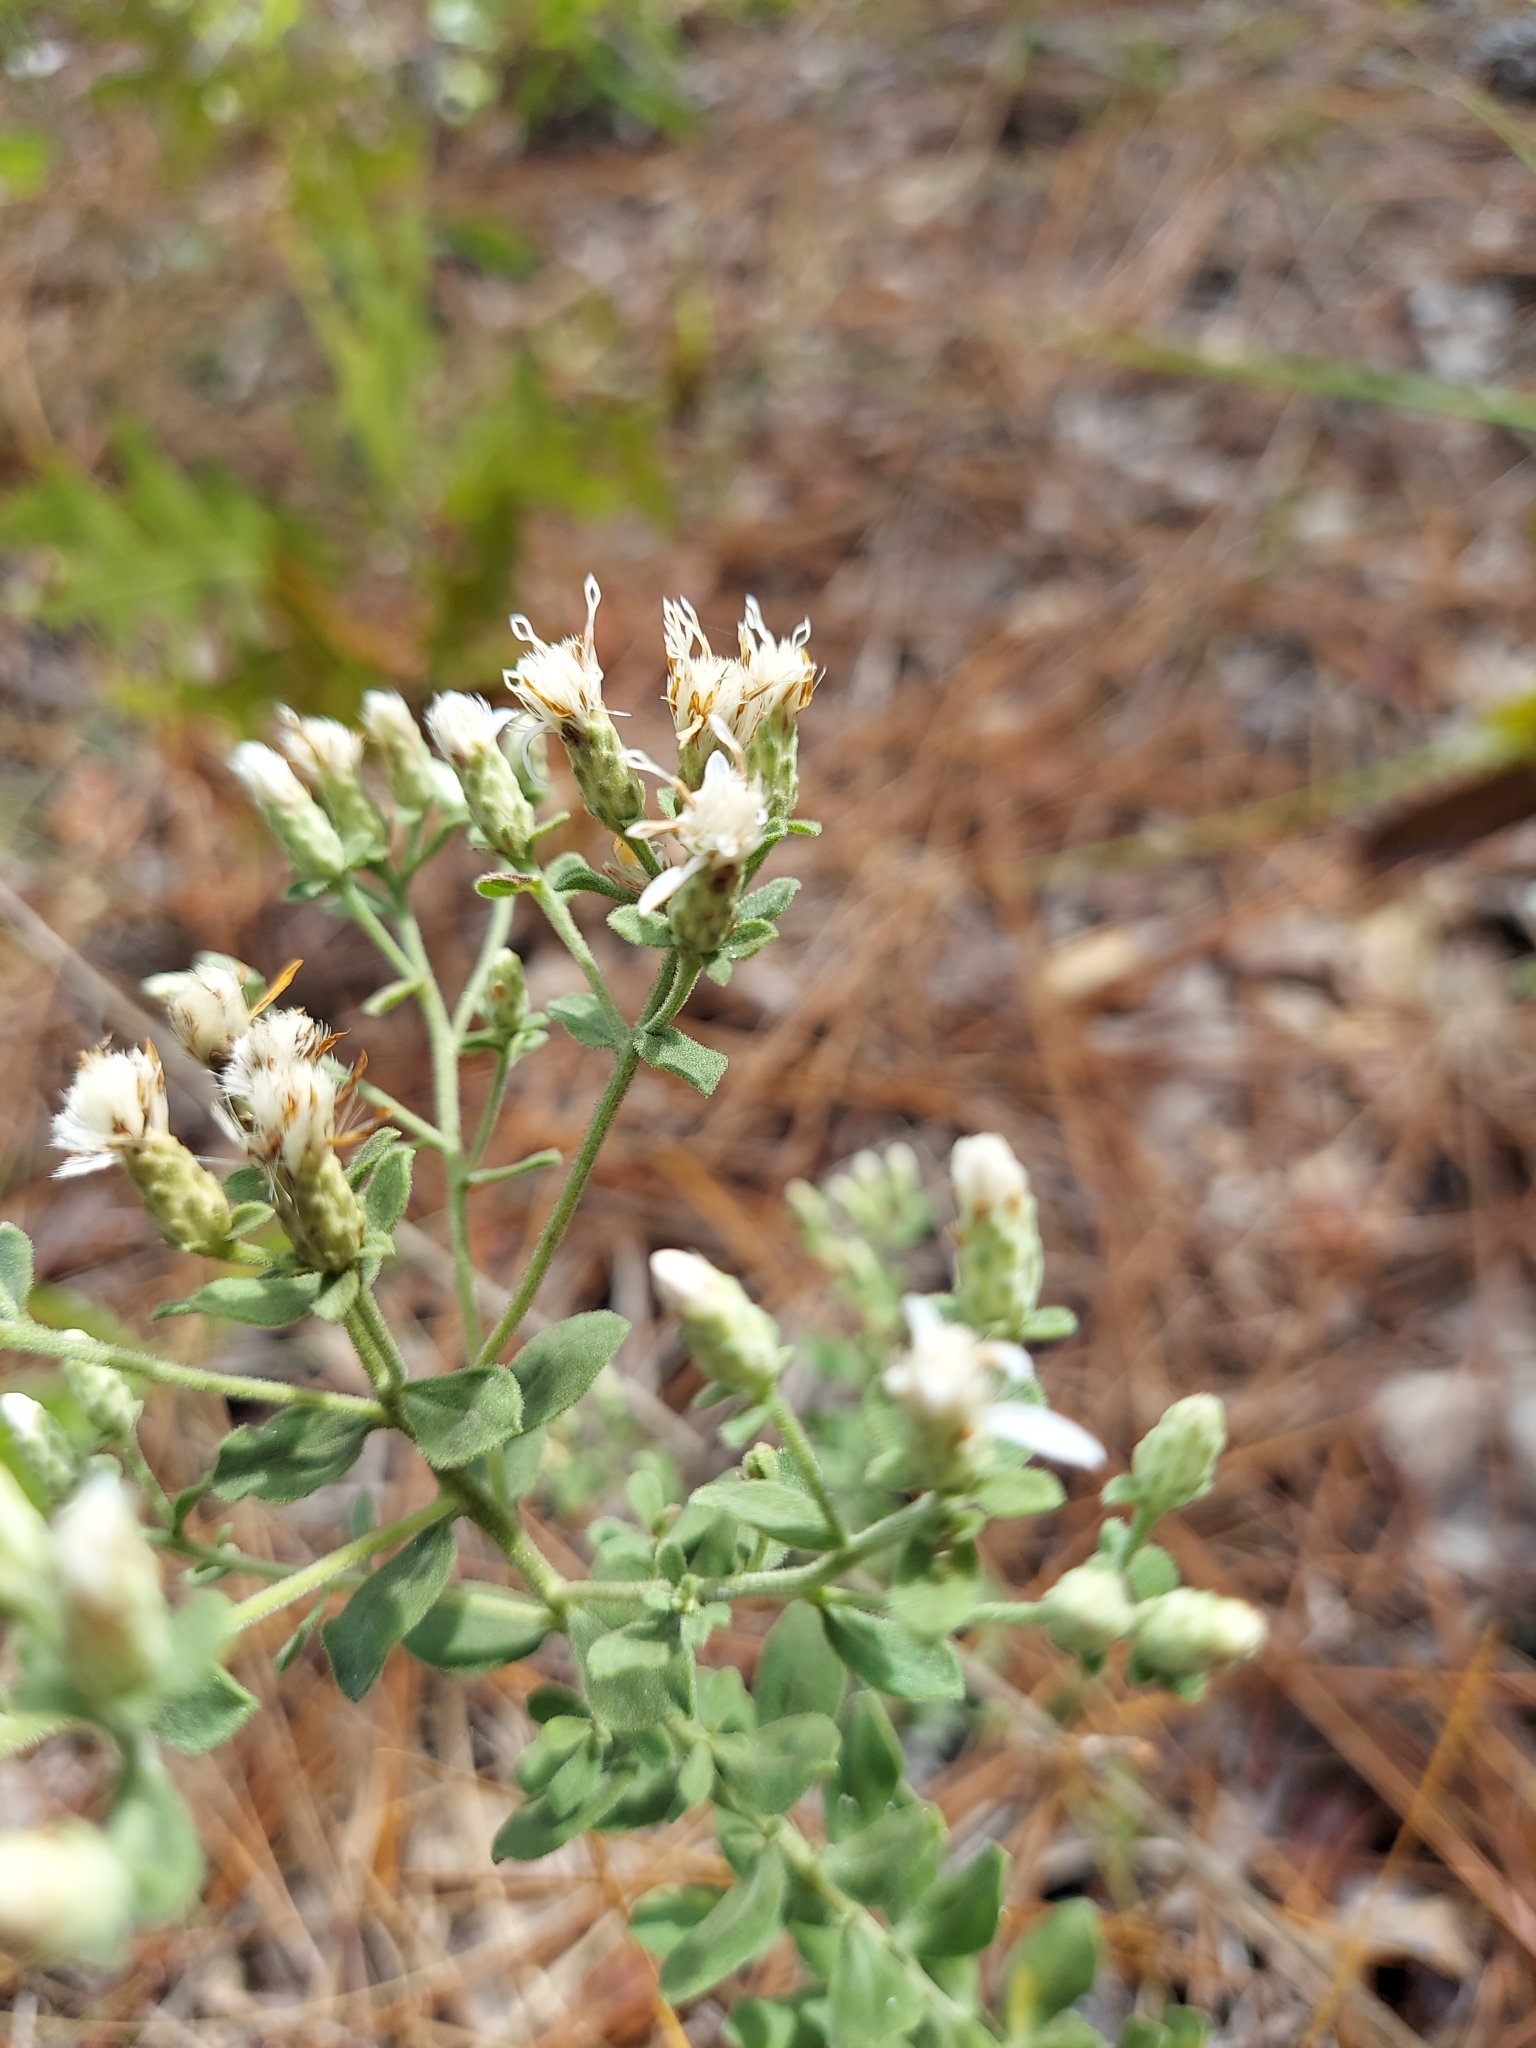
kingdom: Plantae
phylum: Tracheophyta
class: Magnoliopsida
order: Asterales
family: Asteraceae
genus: Sericocarpus
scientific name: Sericocarpus tortifolius
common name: Dixie aster
